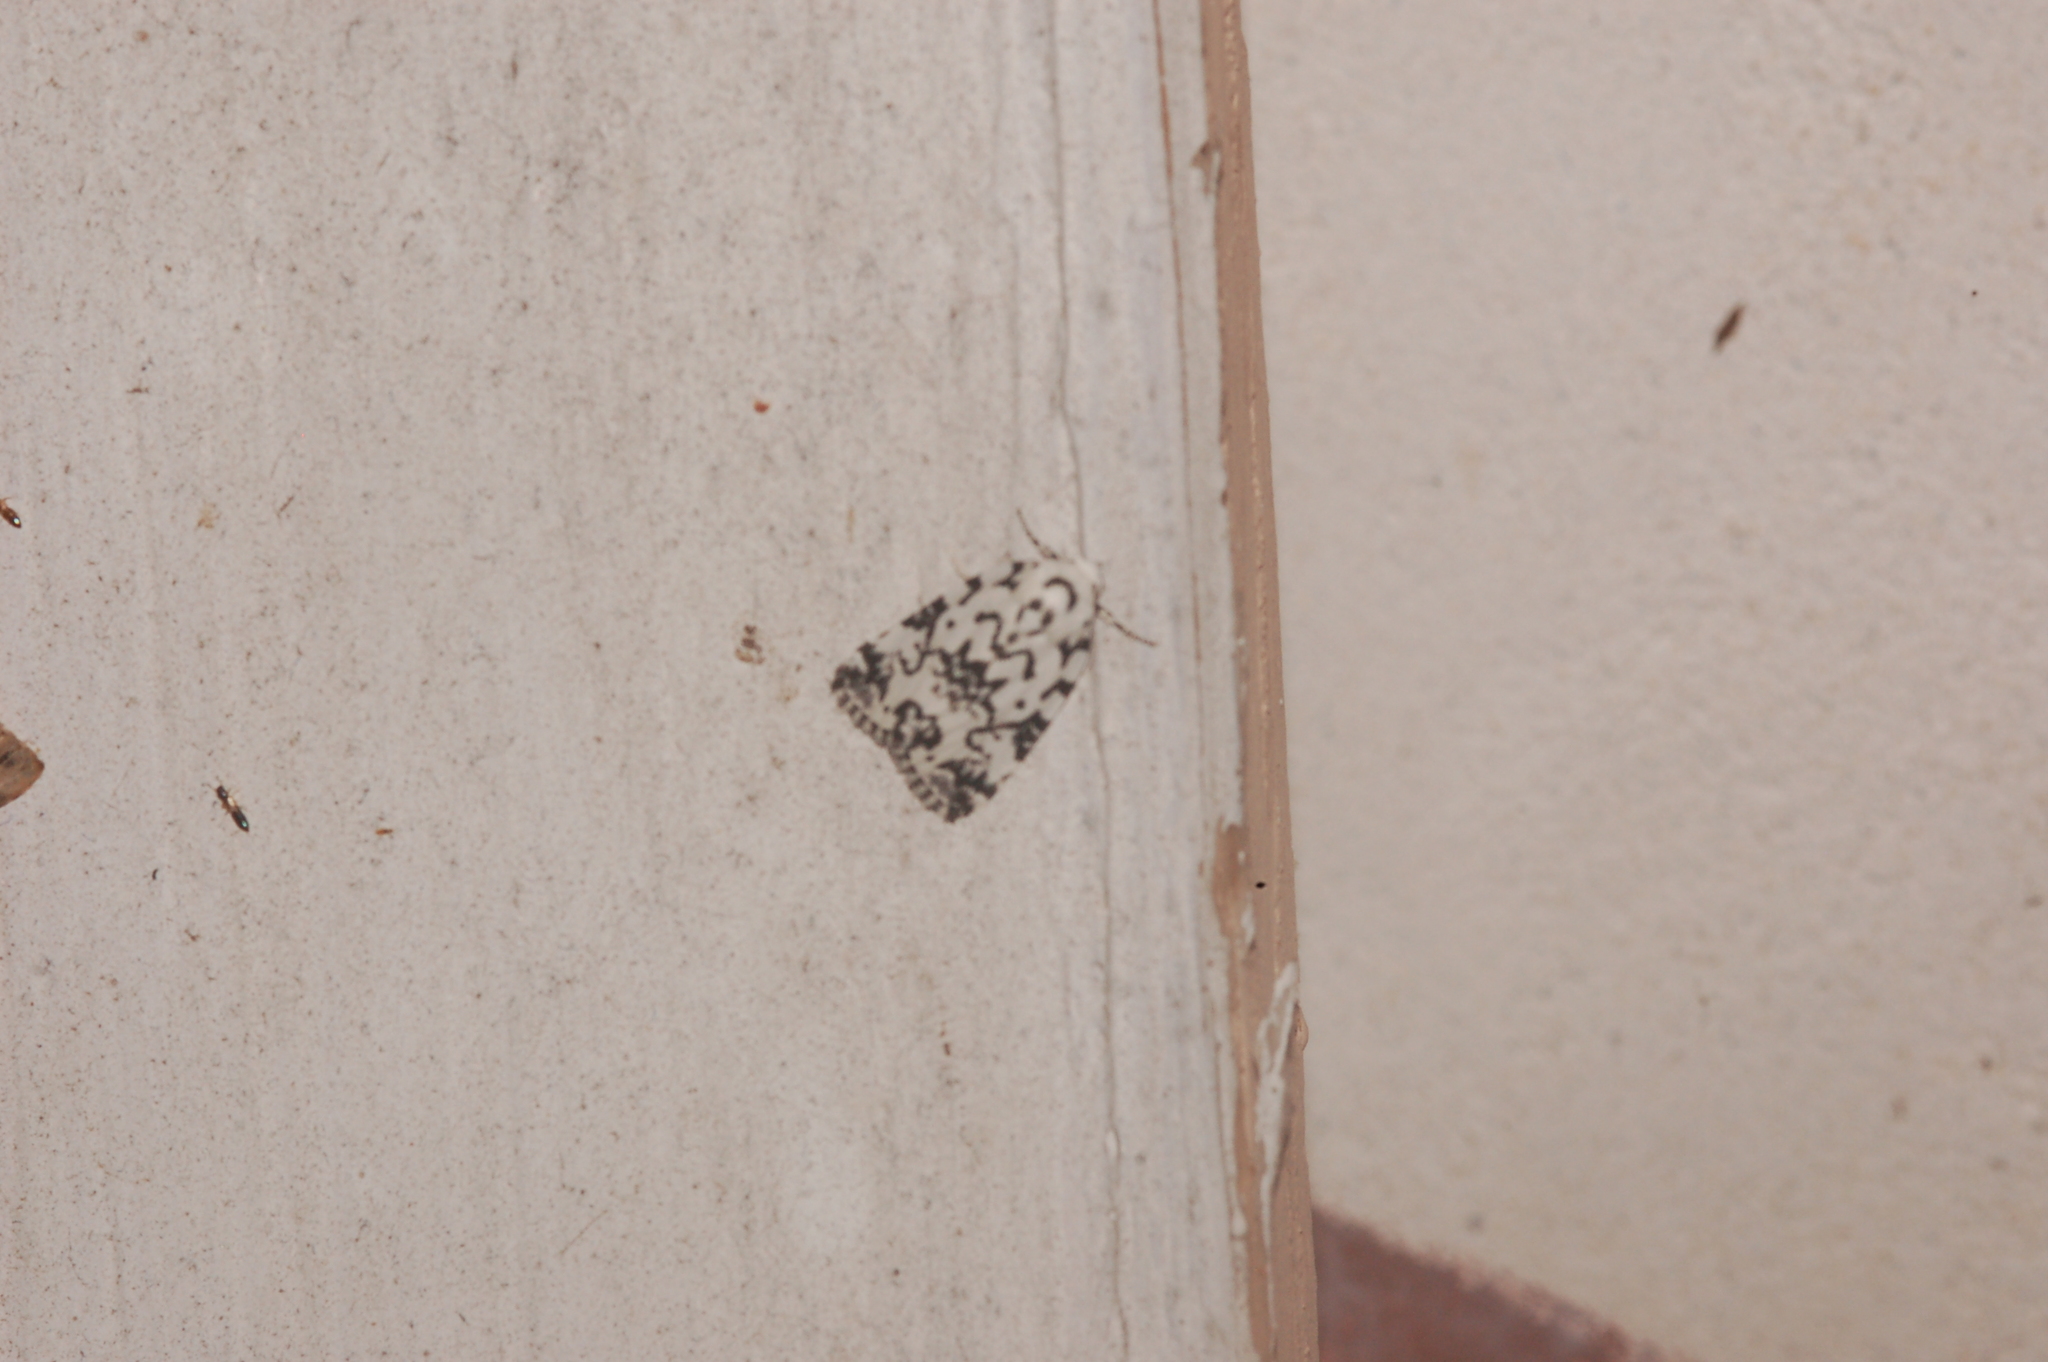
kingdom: Animalia
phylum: Arthropoda
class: Insecta
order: Lepidoptera
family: Noctuidae
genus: Polygrammate
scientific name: Polygrammate hebraeicum
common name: Hebrew moth
